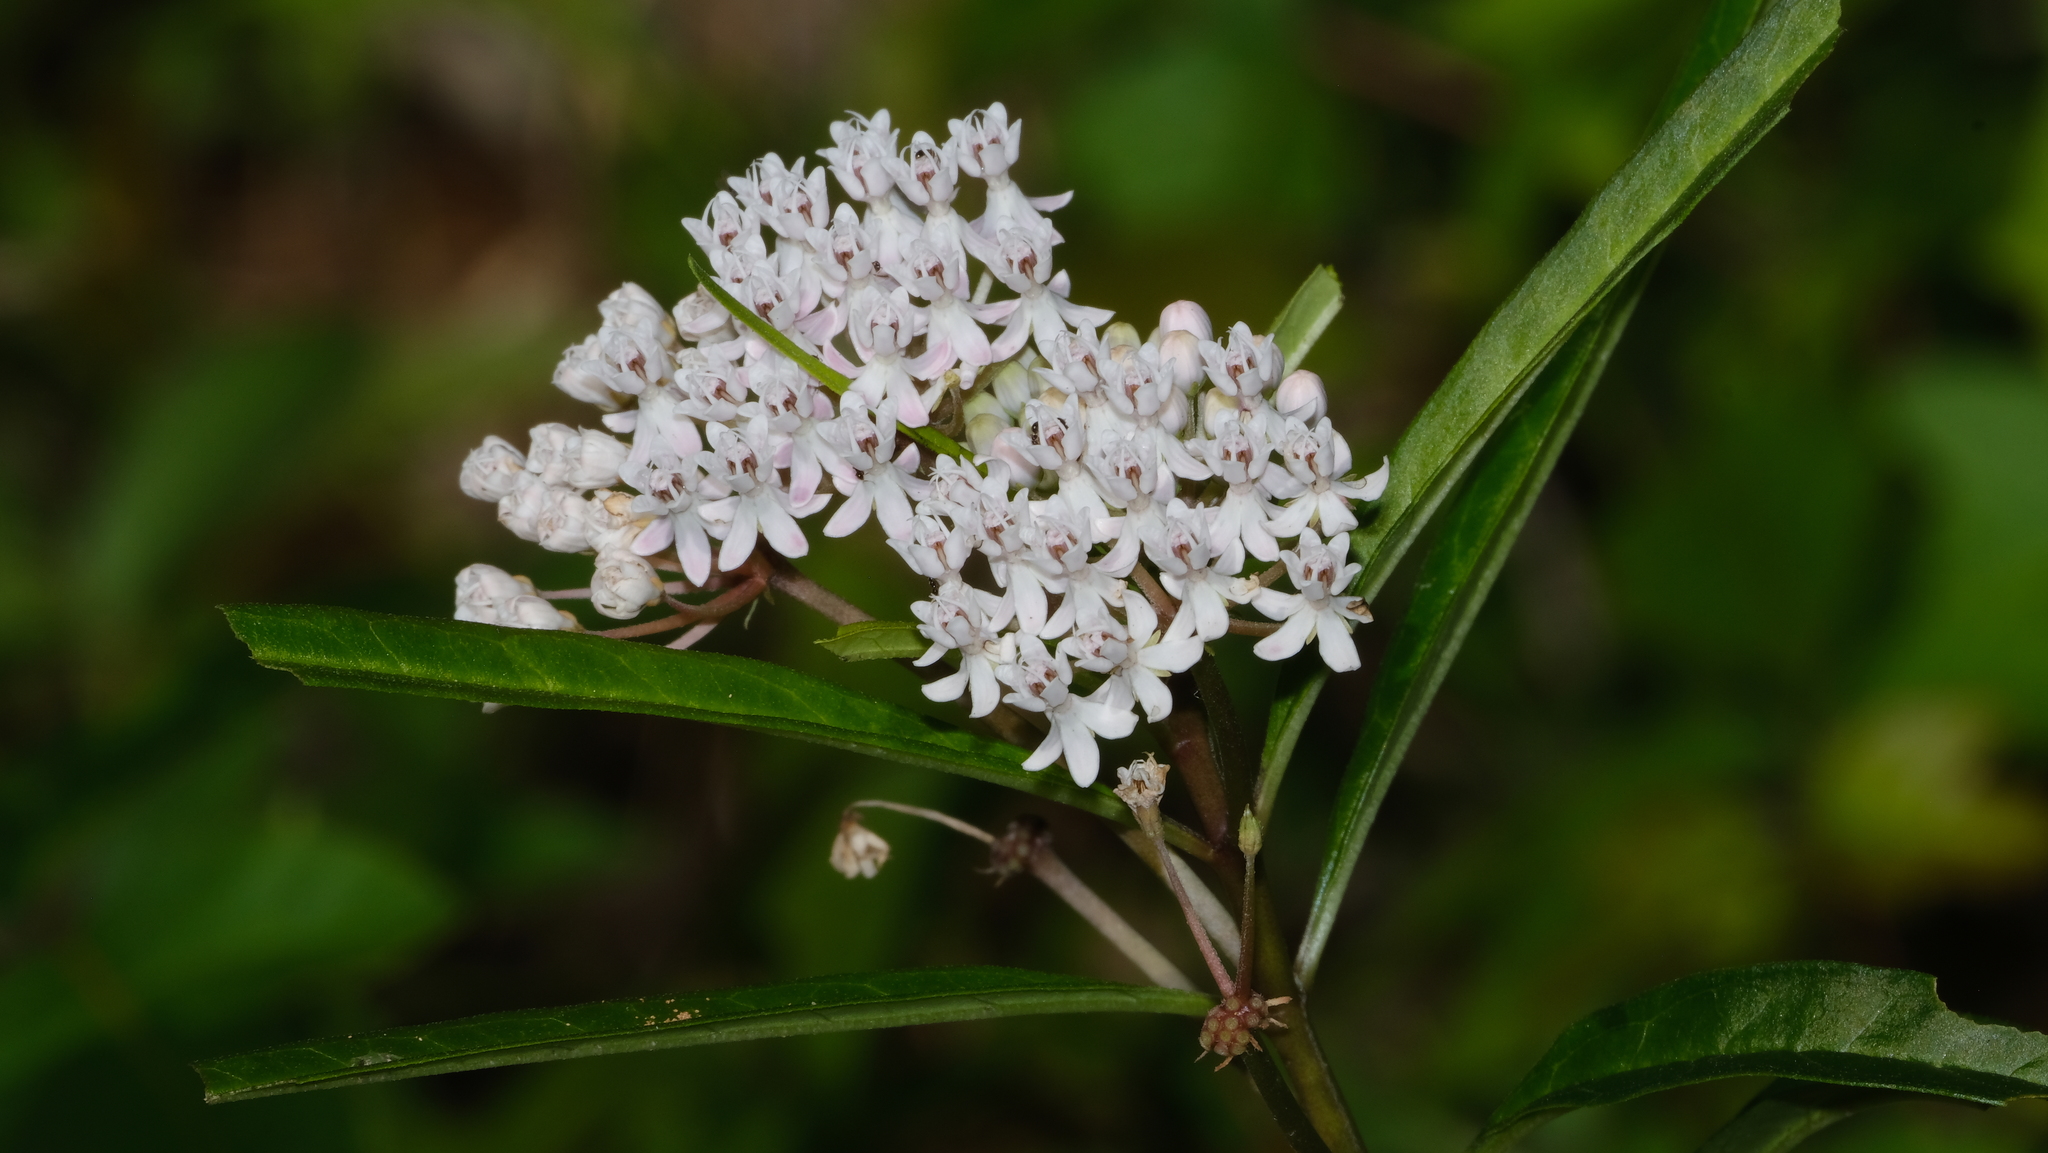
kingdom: Plantae
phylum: Tracheophyta
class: Magnoliopsida
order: Gentianales
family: Apocynaceae
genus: Asclepias
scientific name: Asclepias perennis
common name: Smooth-seed milkweed
